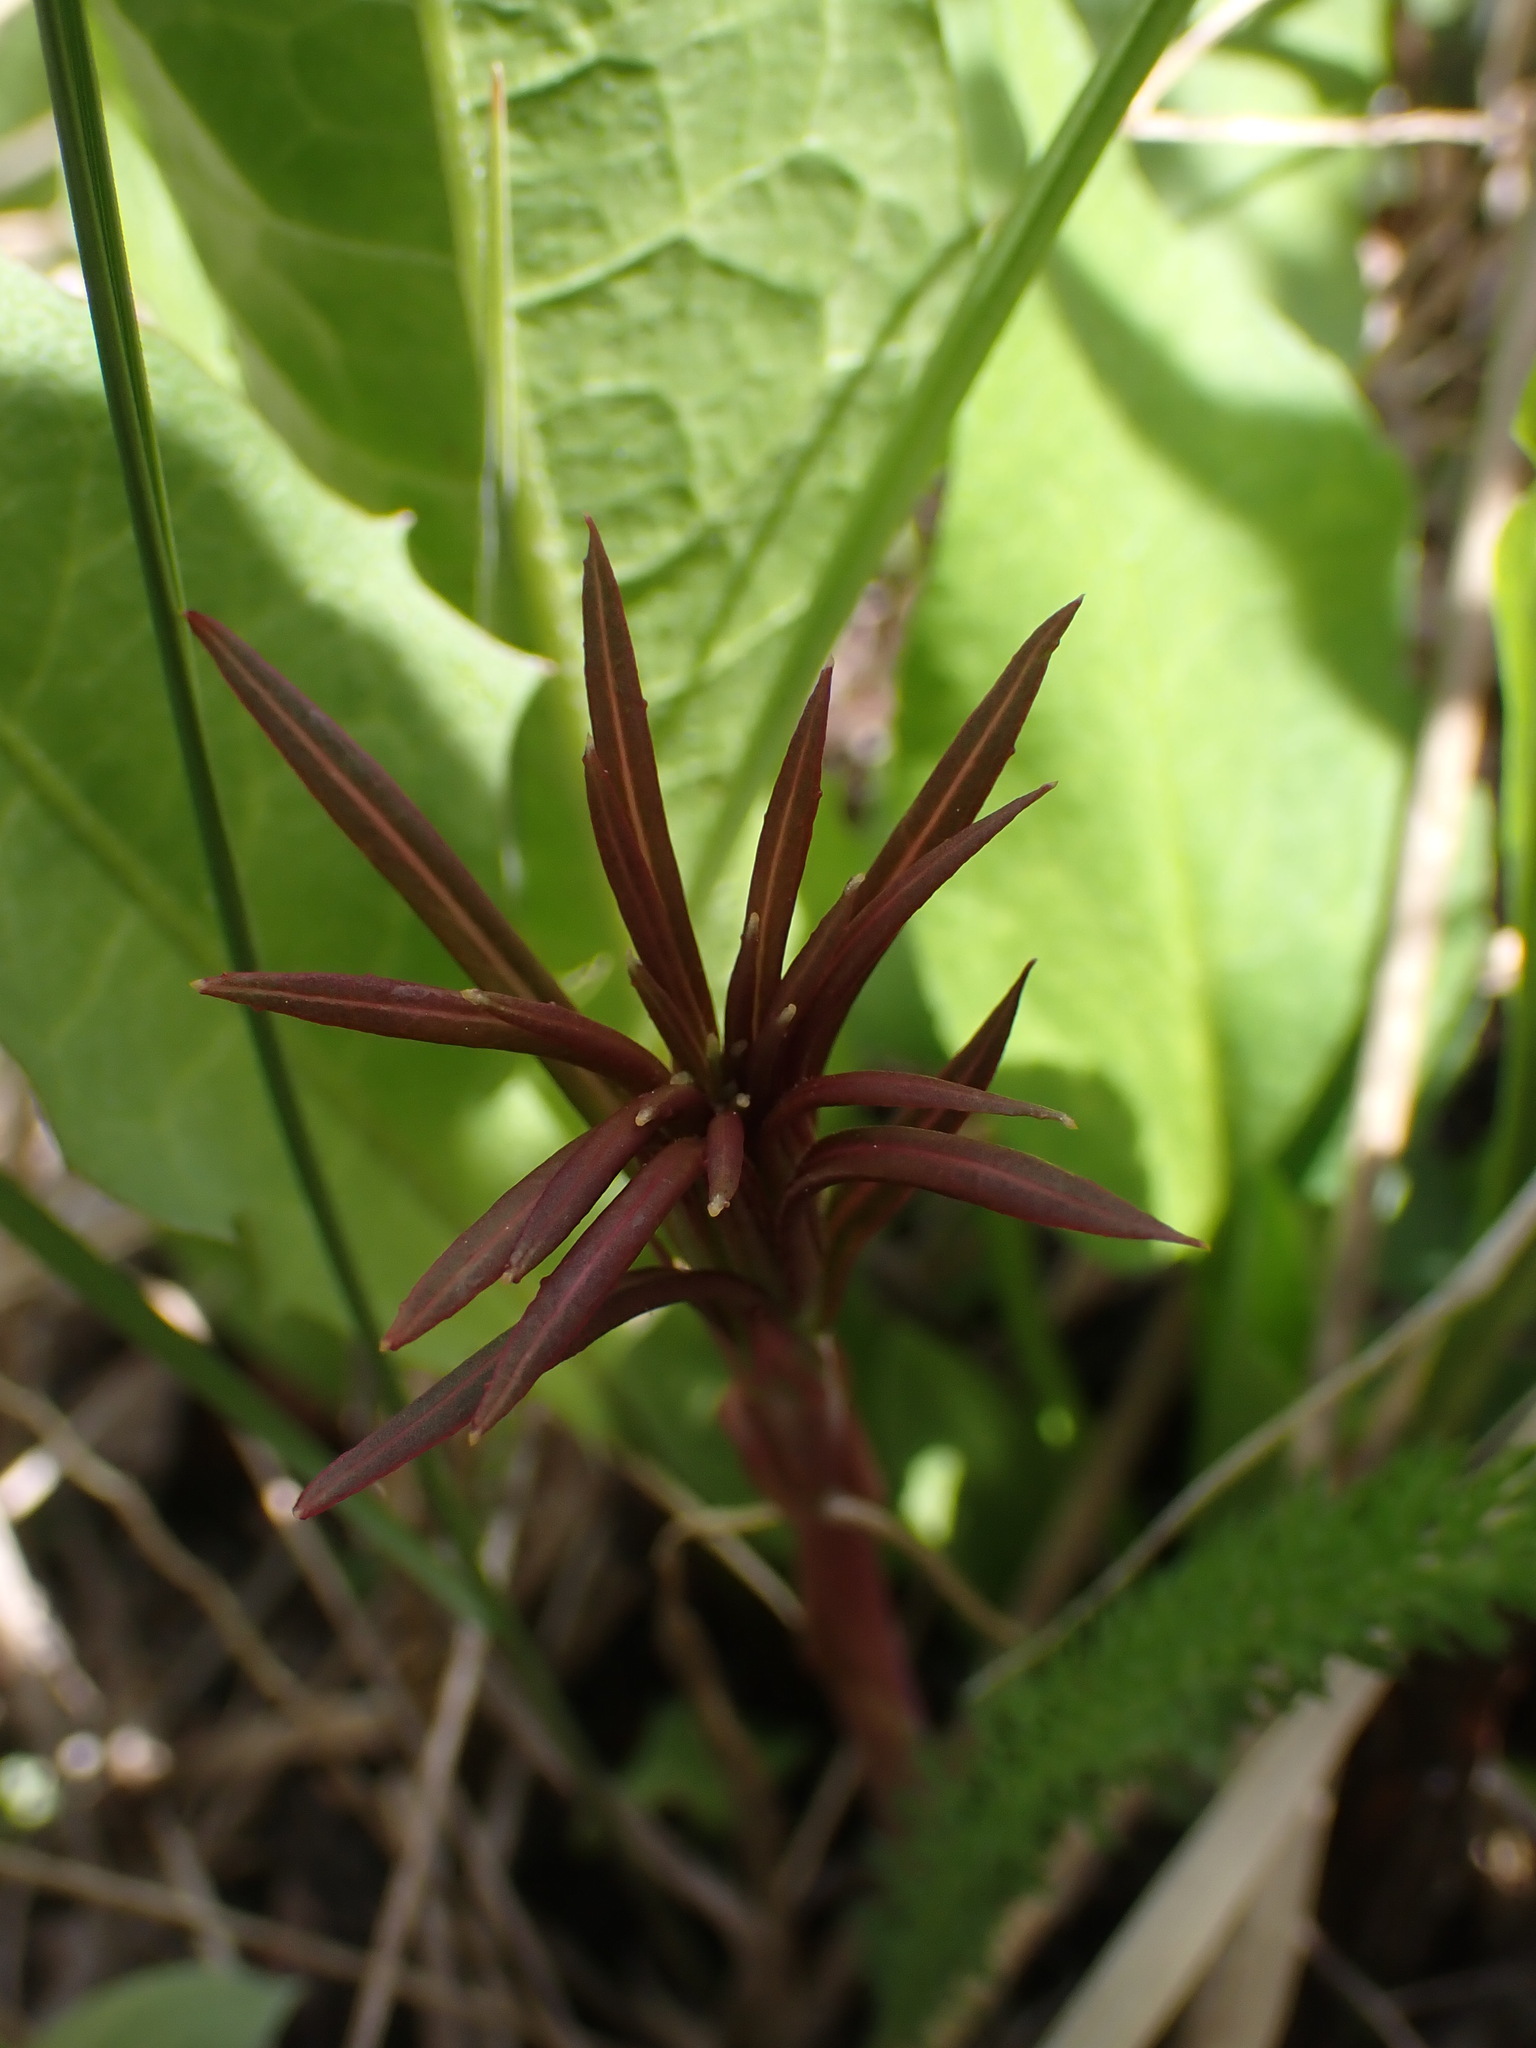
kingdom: Plantae
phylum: Tracheophyta
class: Magnoliopsida
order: Myrtales
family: Onagraceae
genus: Chamaenerion
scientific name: Chamaenerion angustifolium
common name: Fireweed
